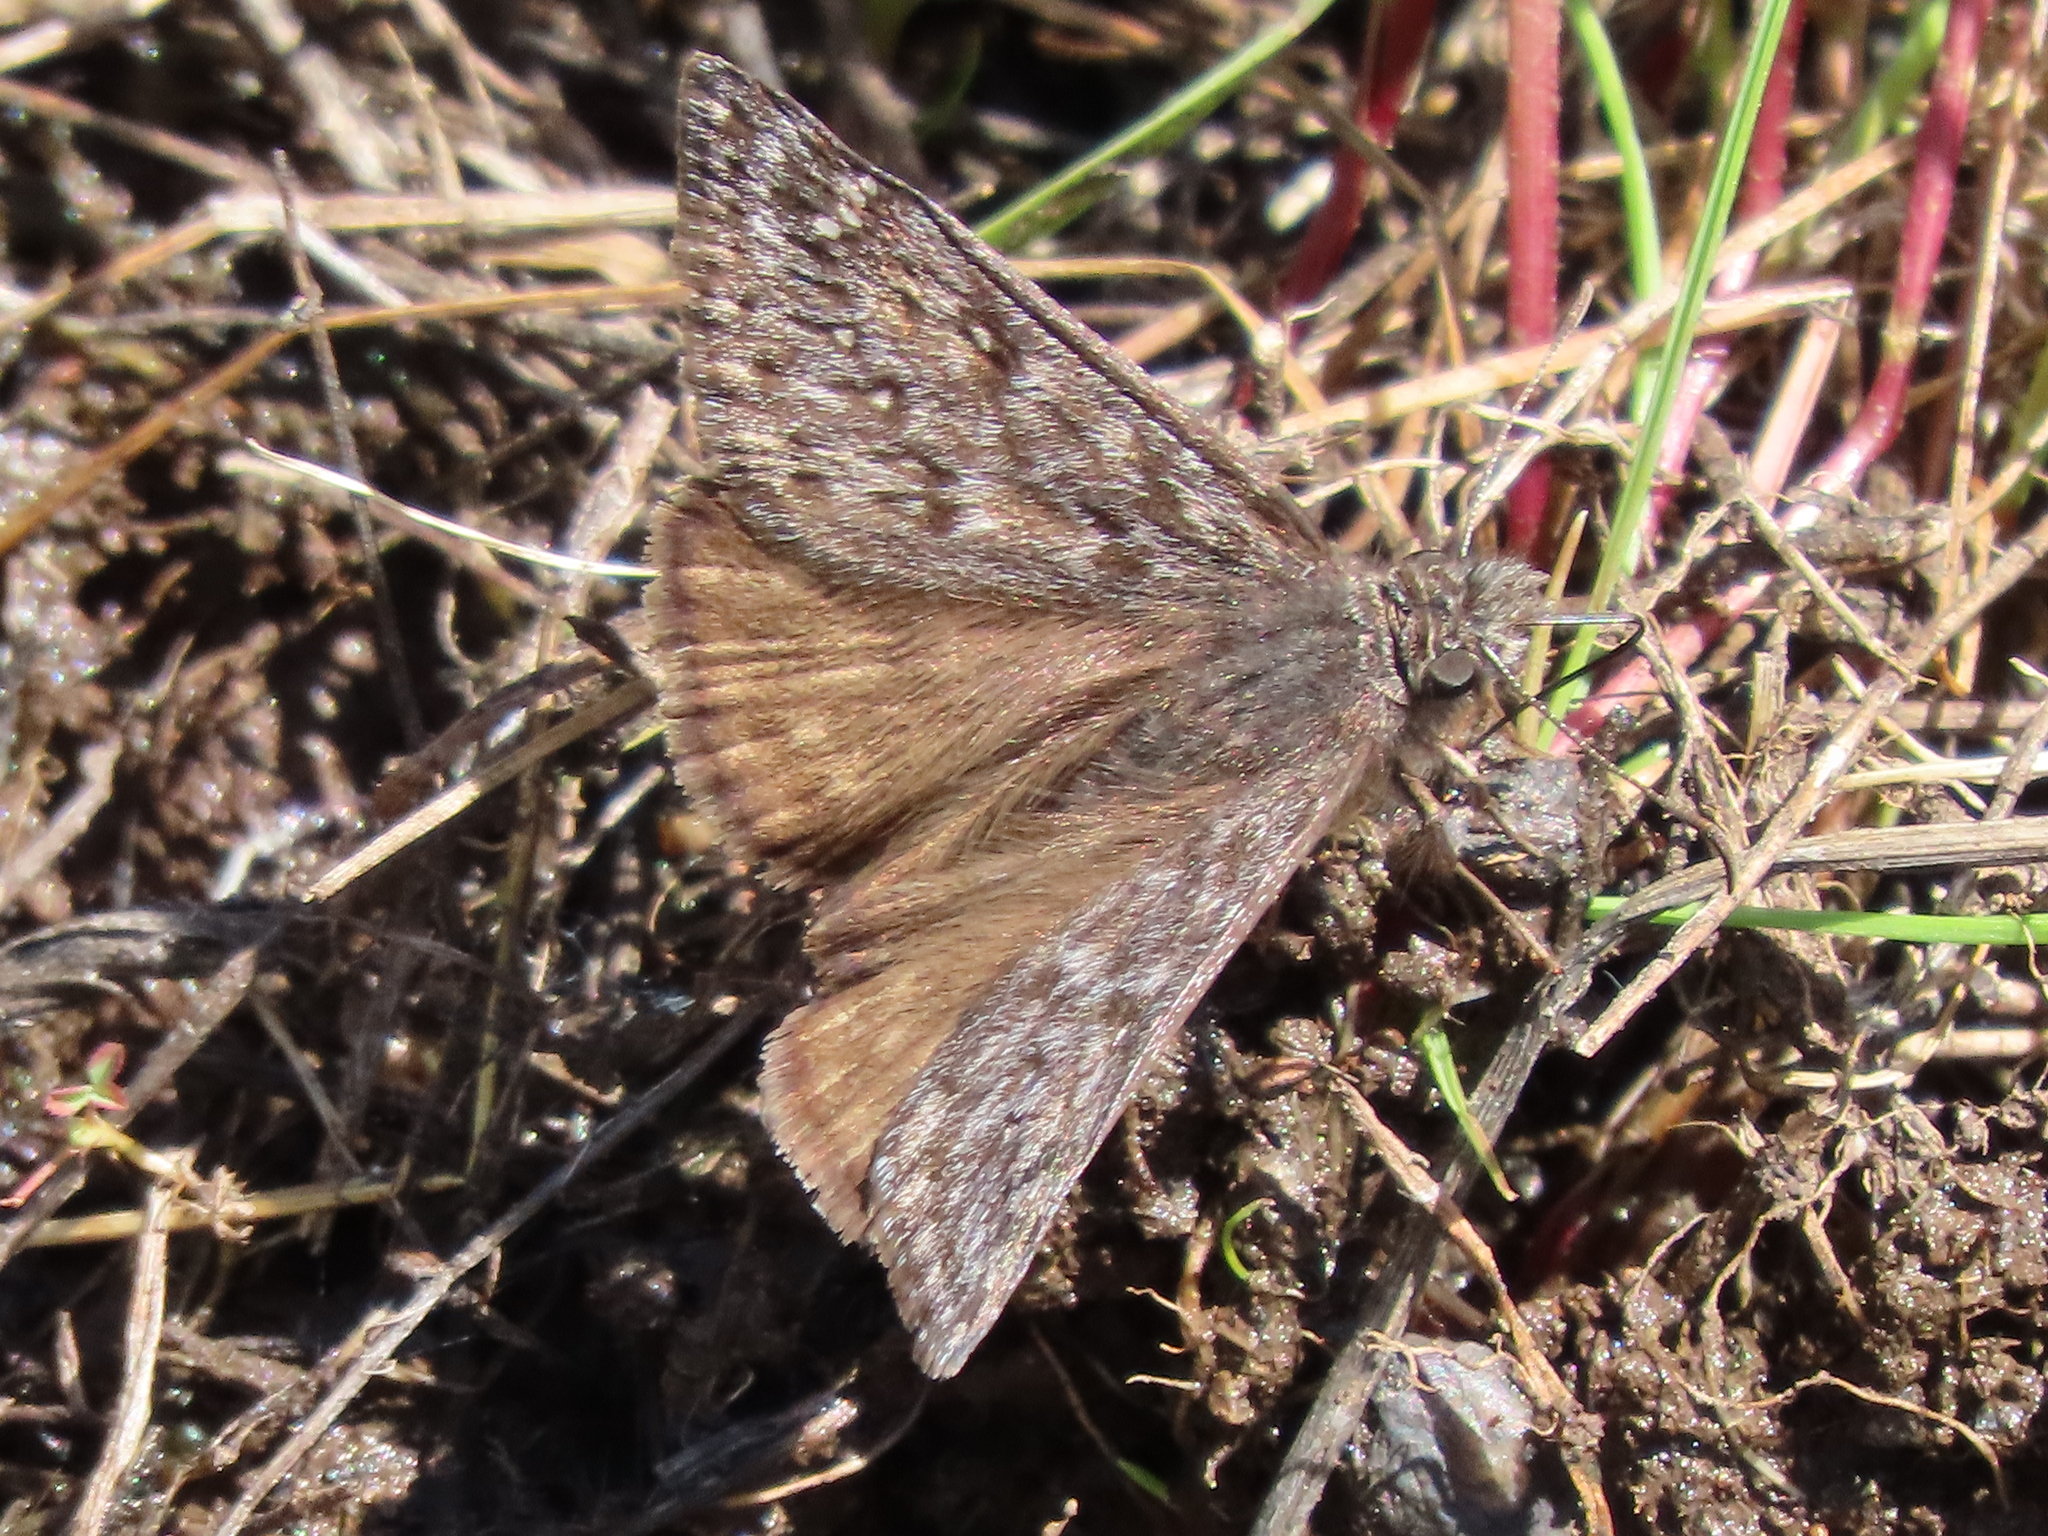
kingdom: Animalia
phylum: Arthropoda
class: Insecta
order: Lepidoptera
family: Hesperiidae
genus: Erynnis
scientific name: Erynnis propertius
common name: Propertius duskywing
